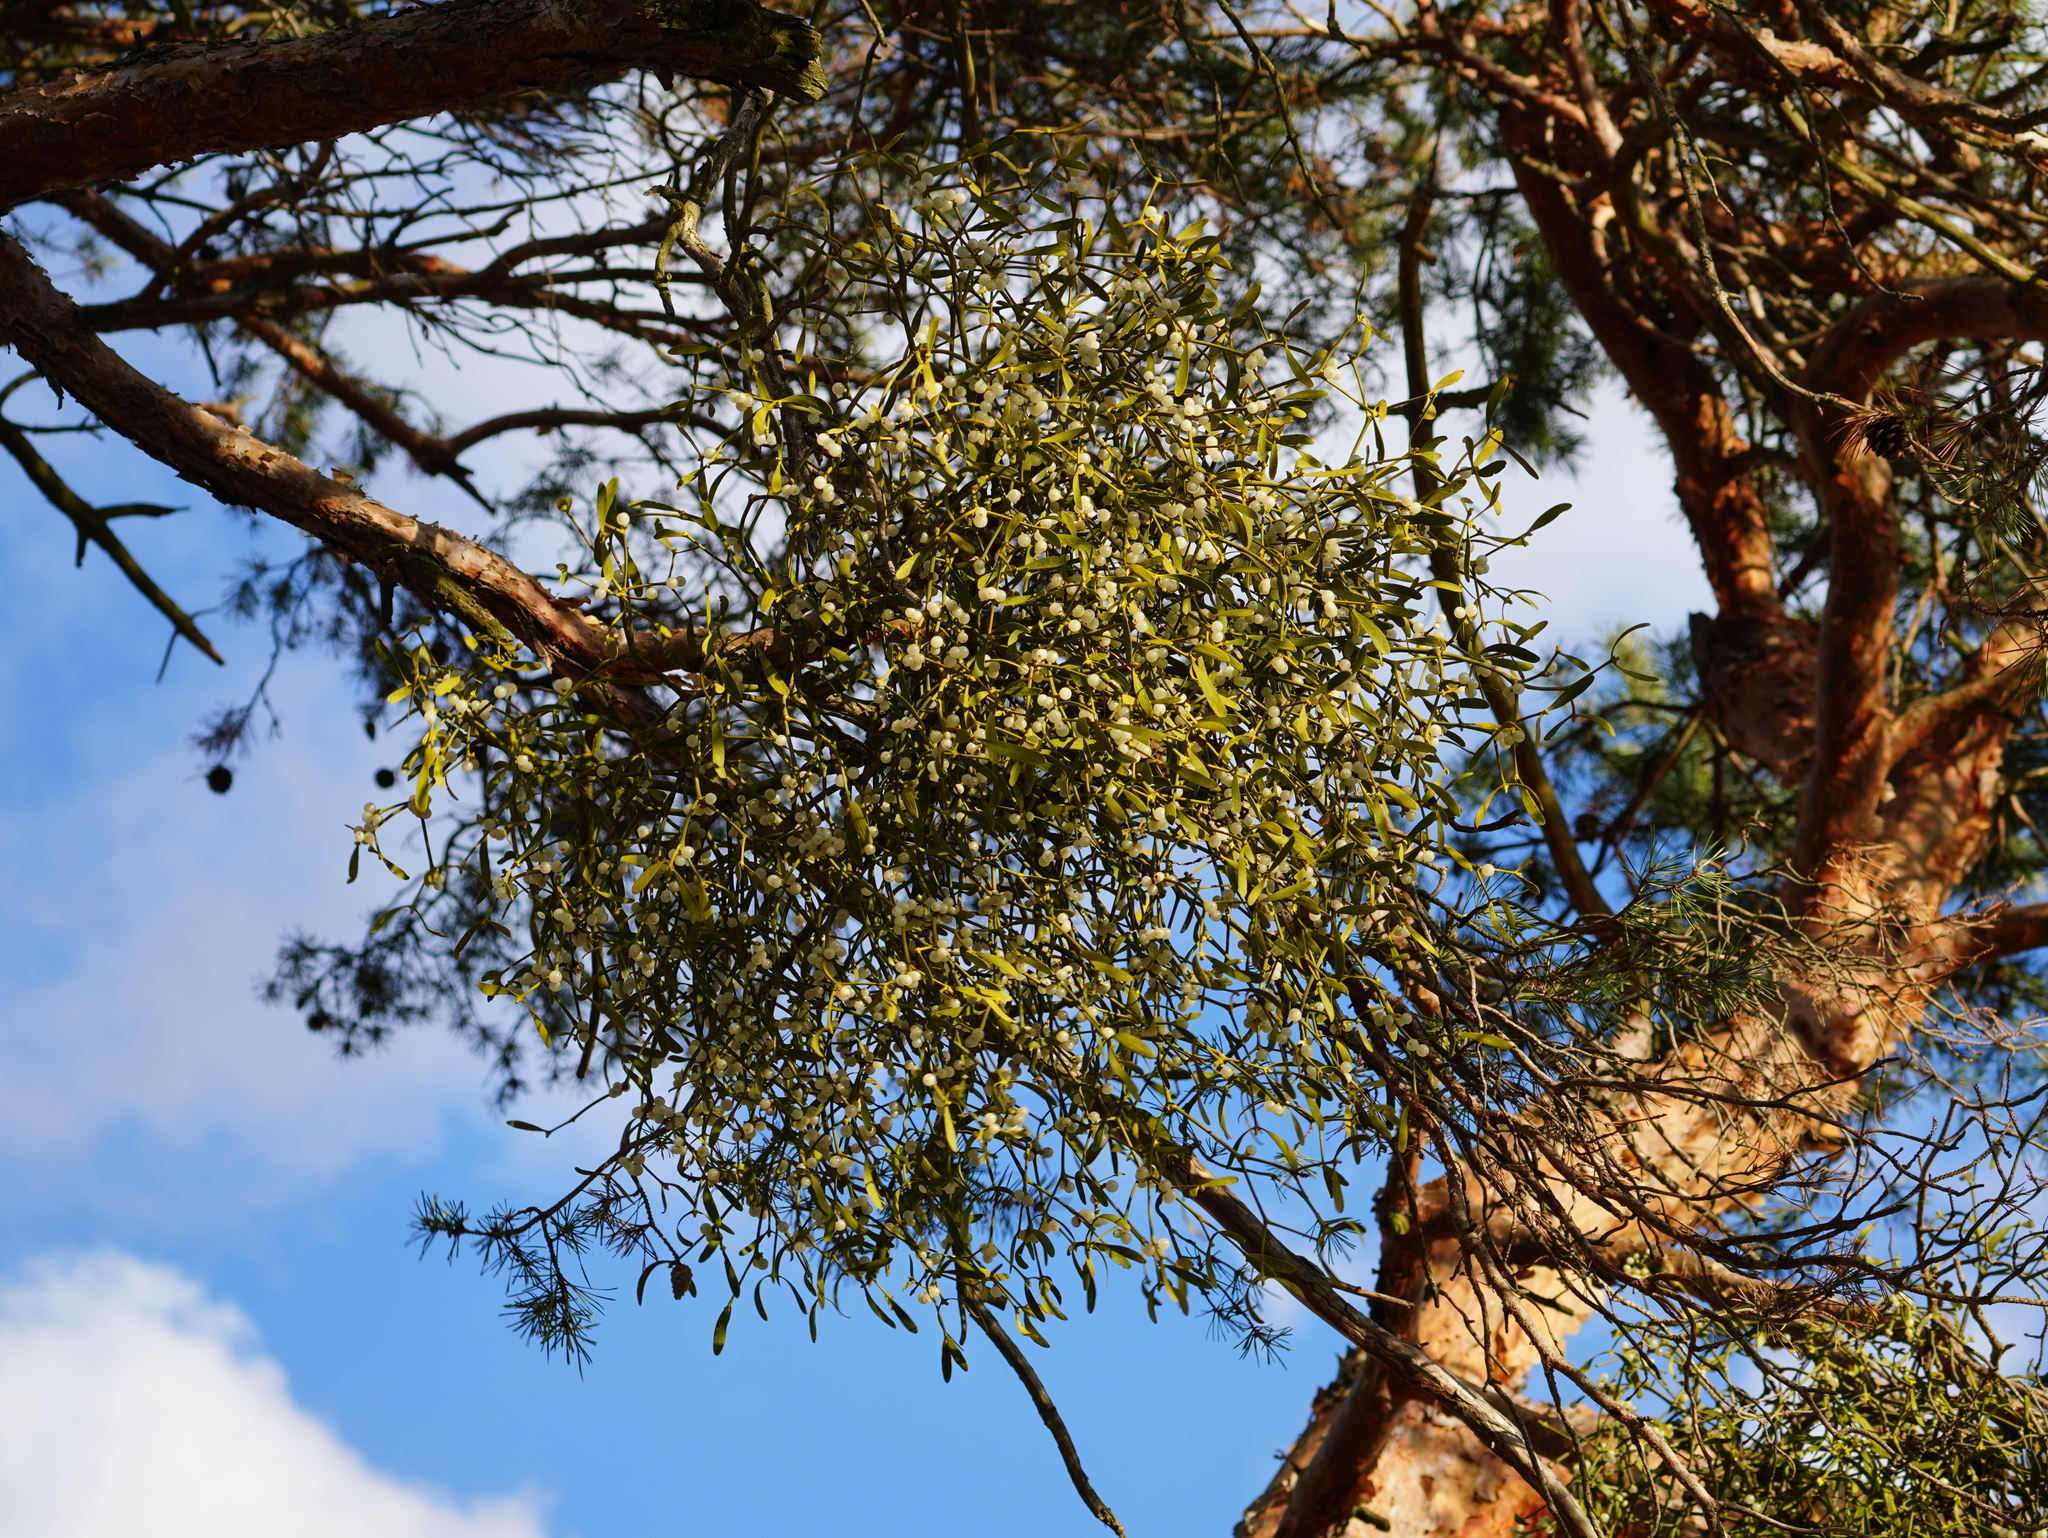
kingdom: Plantae
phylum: Tracheophyta
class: Magnoliopsida
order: Santalales
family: Viscaceae
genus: Viscum
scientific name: Viscum laxum
